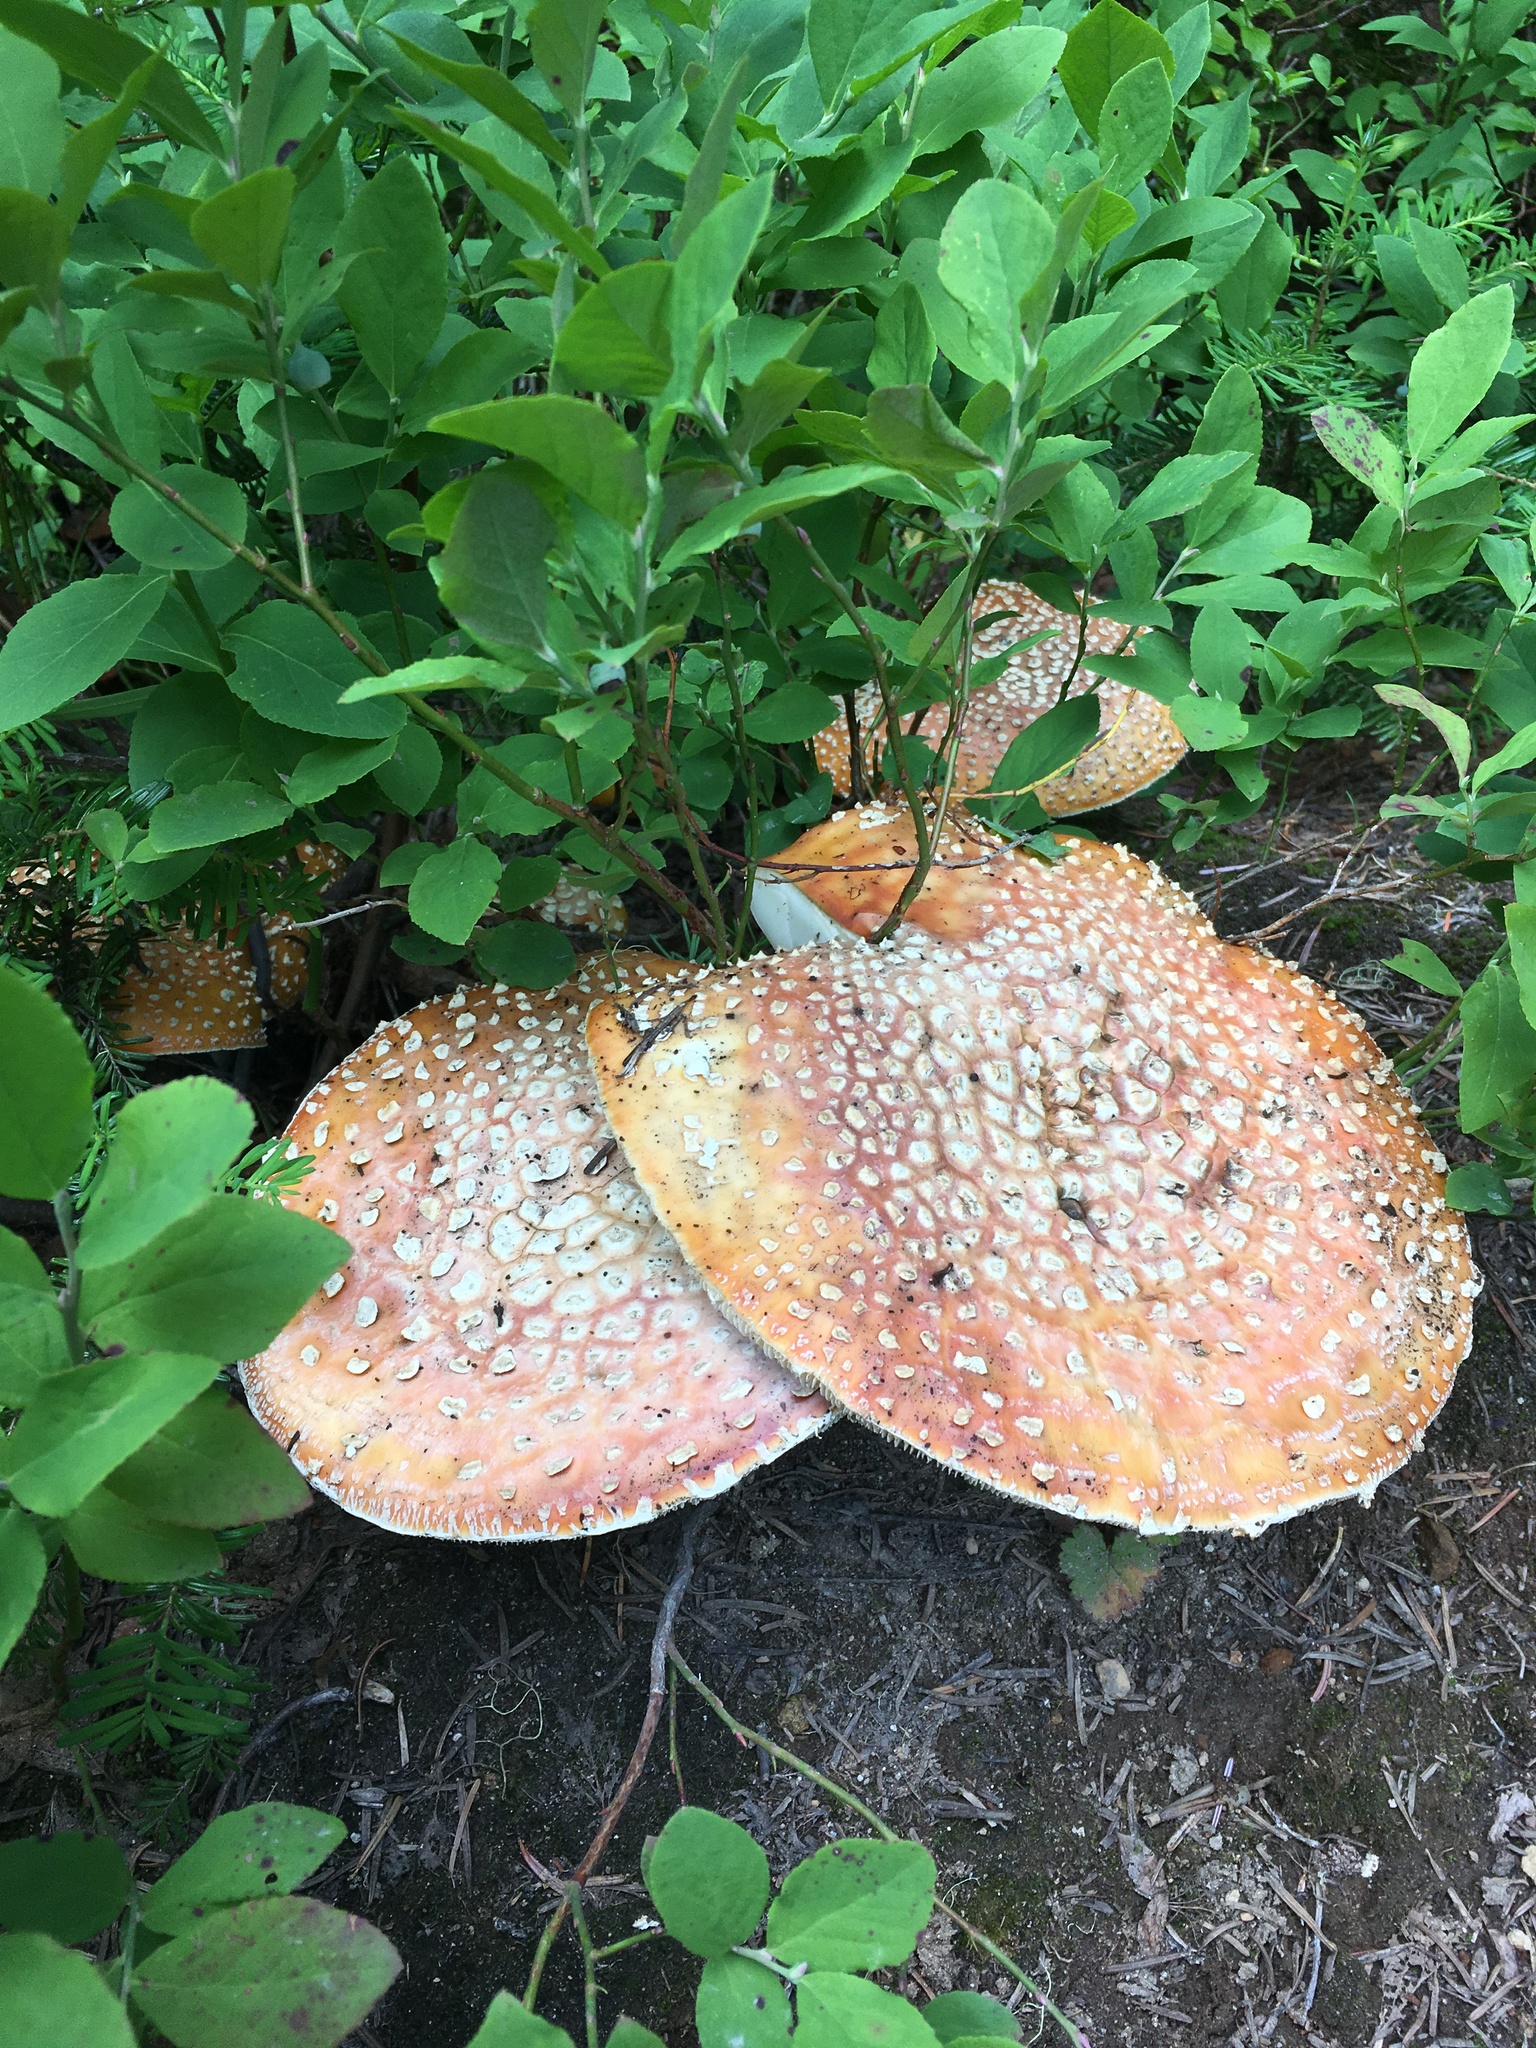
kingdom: Fungi
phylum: Basidiomycota
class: Agaricomycetes
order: Agaricales
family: Amanitaceae
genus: Amanita
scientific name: Amanita muscaria
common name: Fly agaric
